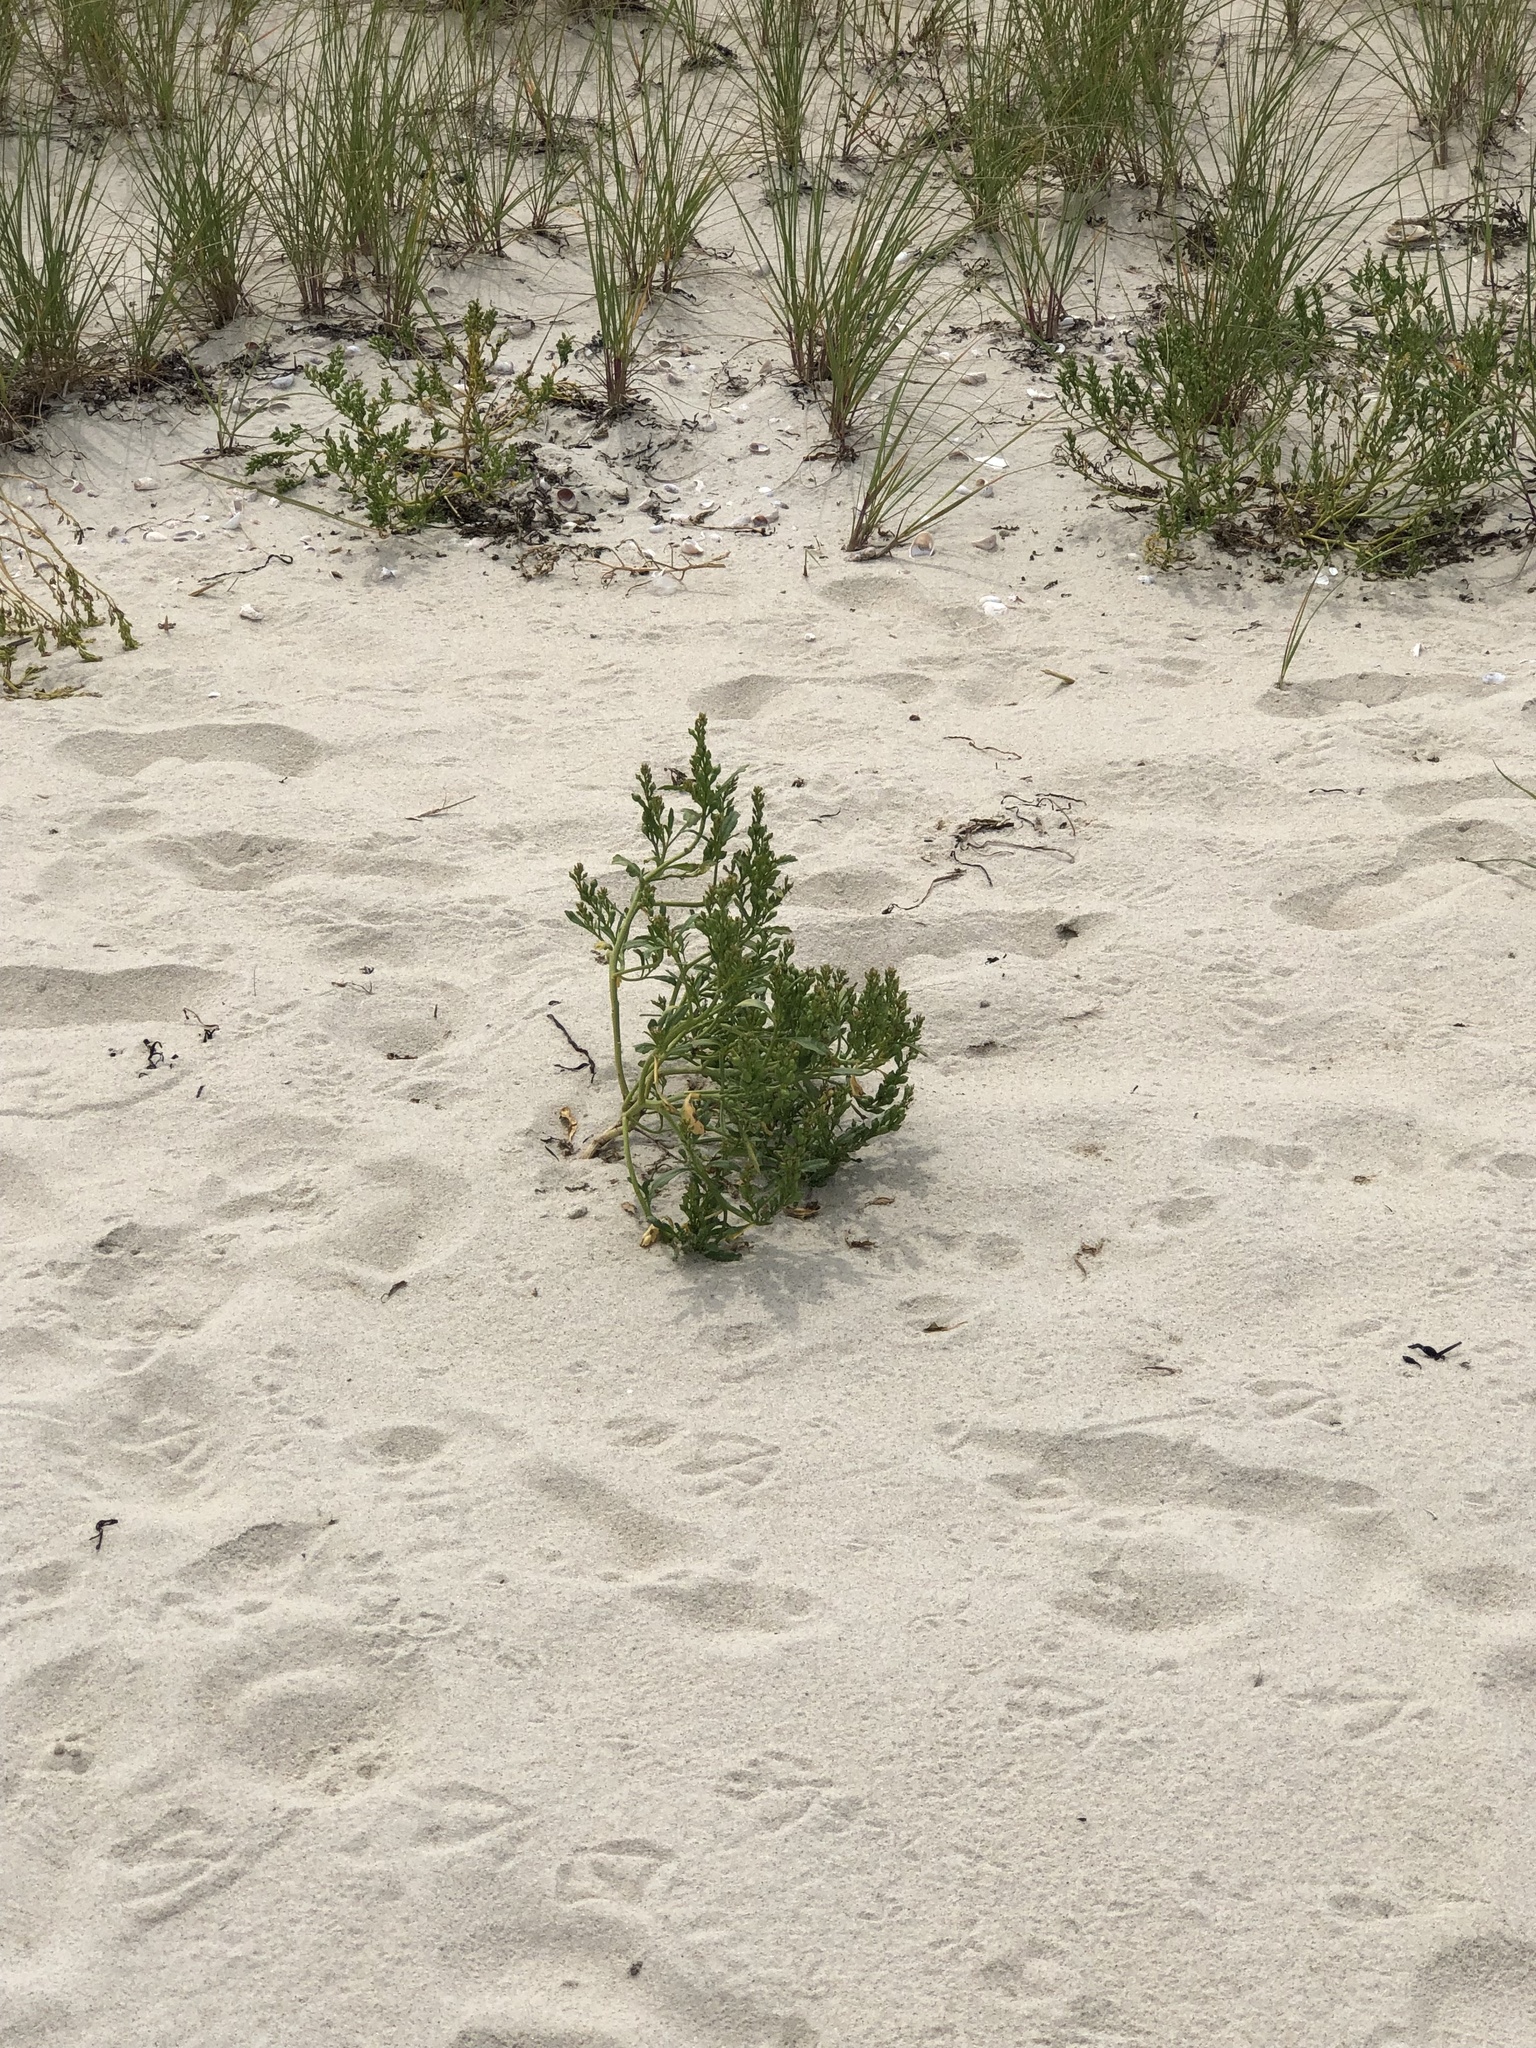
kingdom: Plantae
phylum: Tracheophyta
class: Magnoliopsida
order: Brassicales
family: Brassicaceae
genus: Cakile
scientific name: Cakile edentula
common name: American sea rocket
